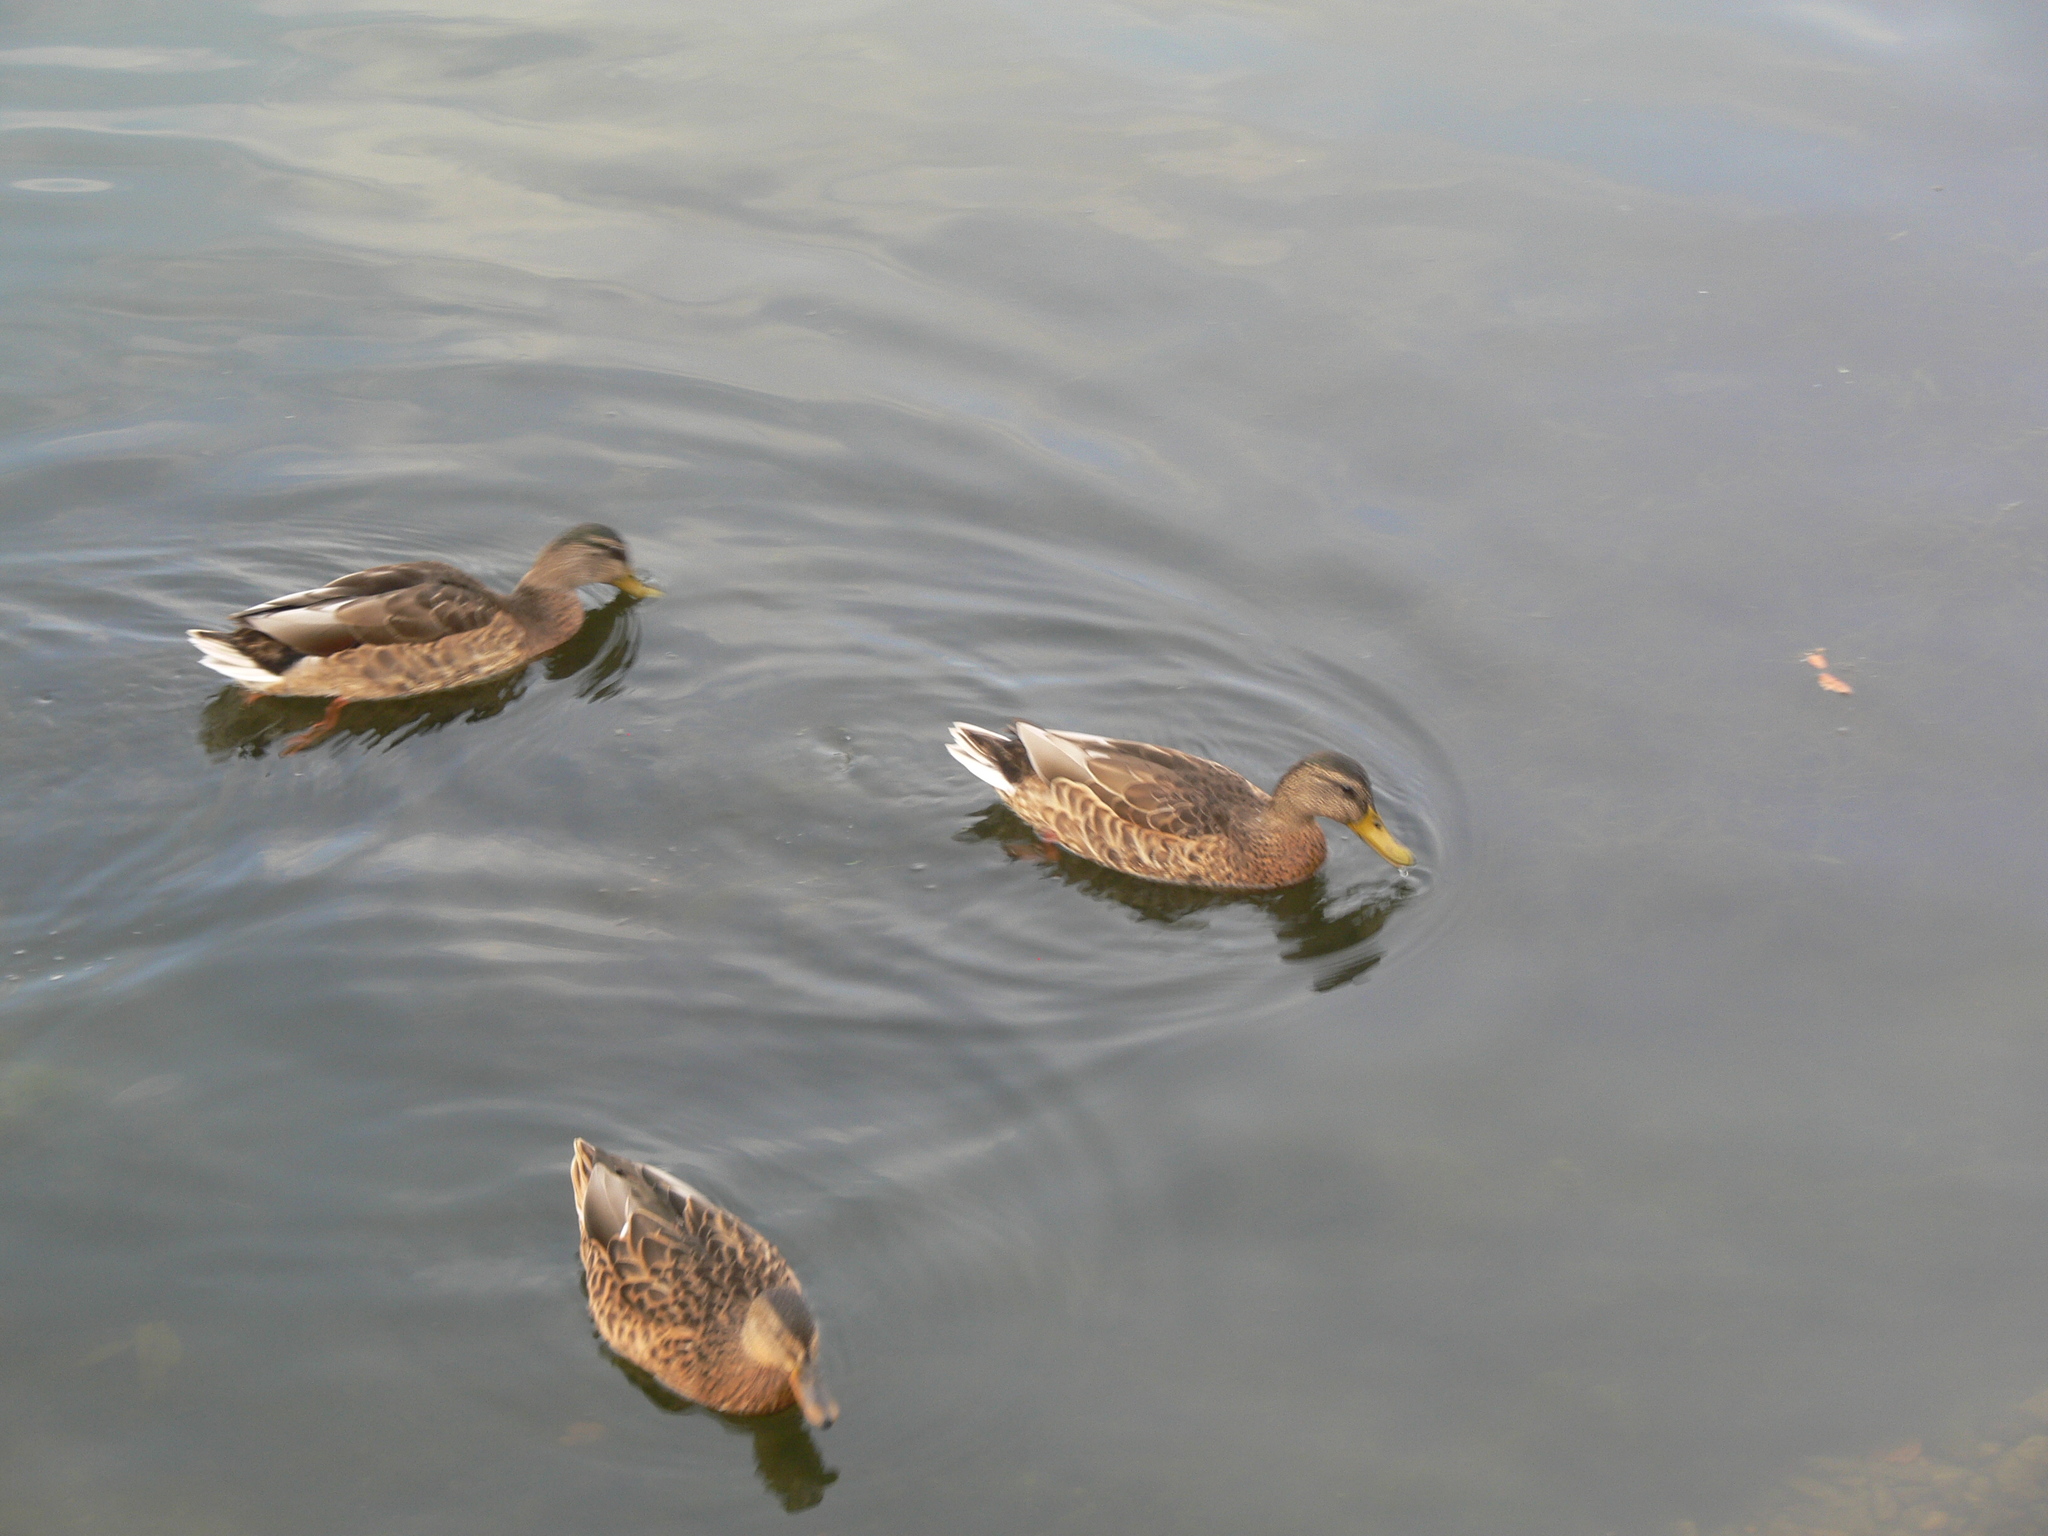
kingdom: Animalia
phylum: Chordata
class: Aves
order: Anseriformes
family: Anatidae
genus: Anas
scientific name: Anas platyrhynchos
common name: Mallard
